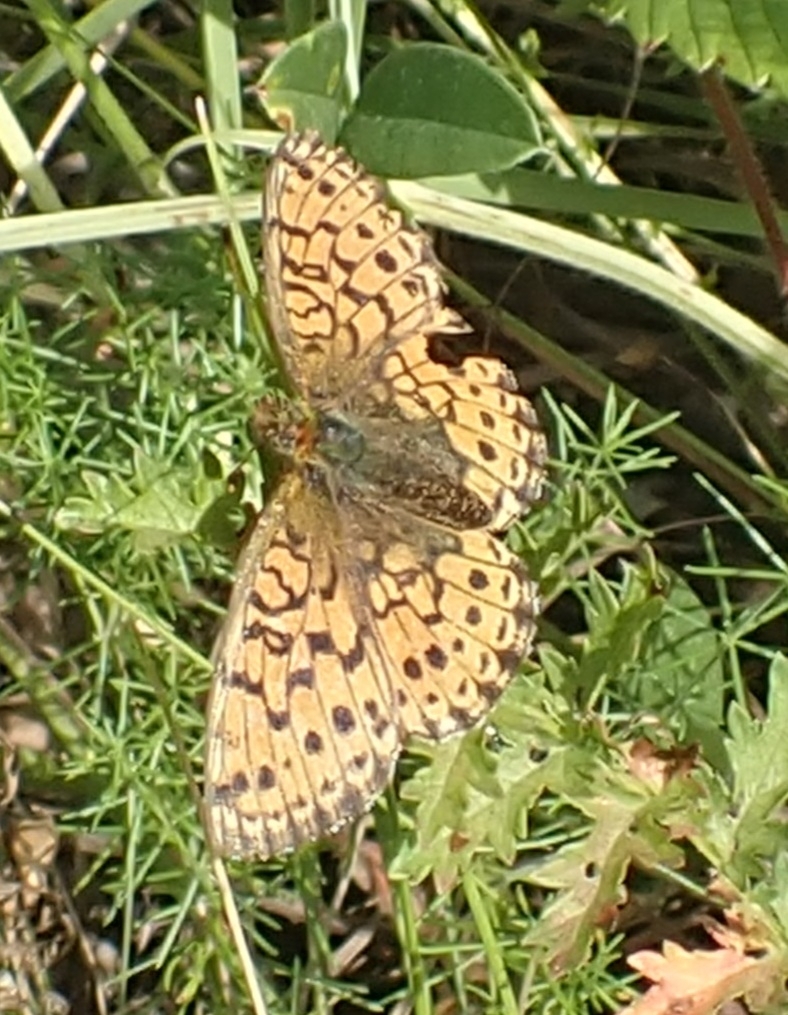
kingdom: Animalia
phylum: Arthropoda
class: Insecta
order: Lepidoptera
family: Nymphalidae
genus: Brenthis
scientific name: Brenthis ino
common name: Lesser marbled fritillary
